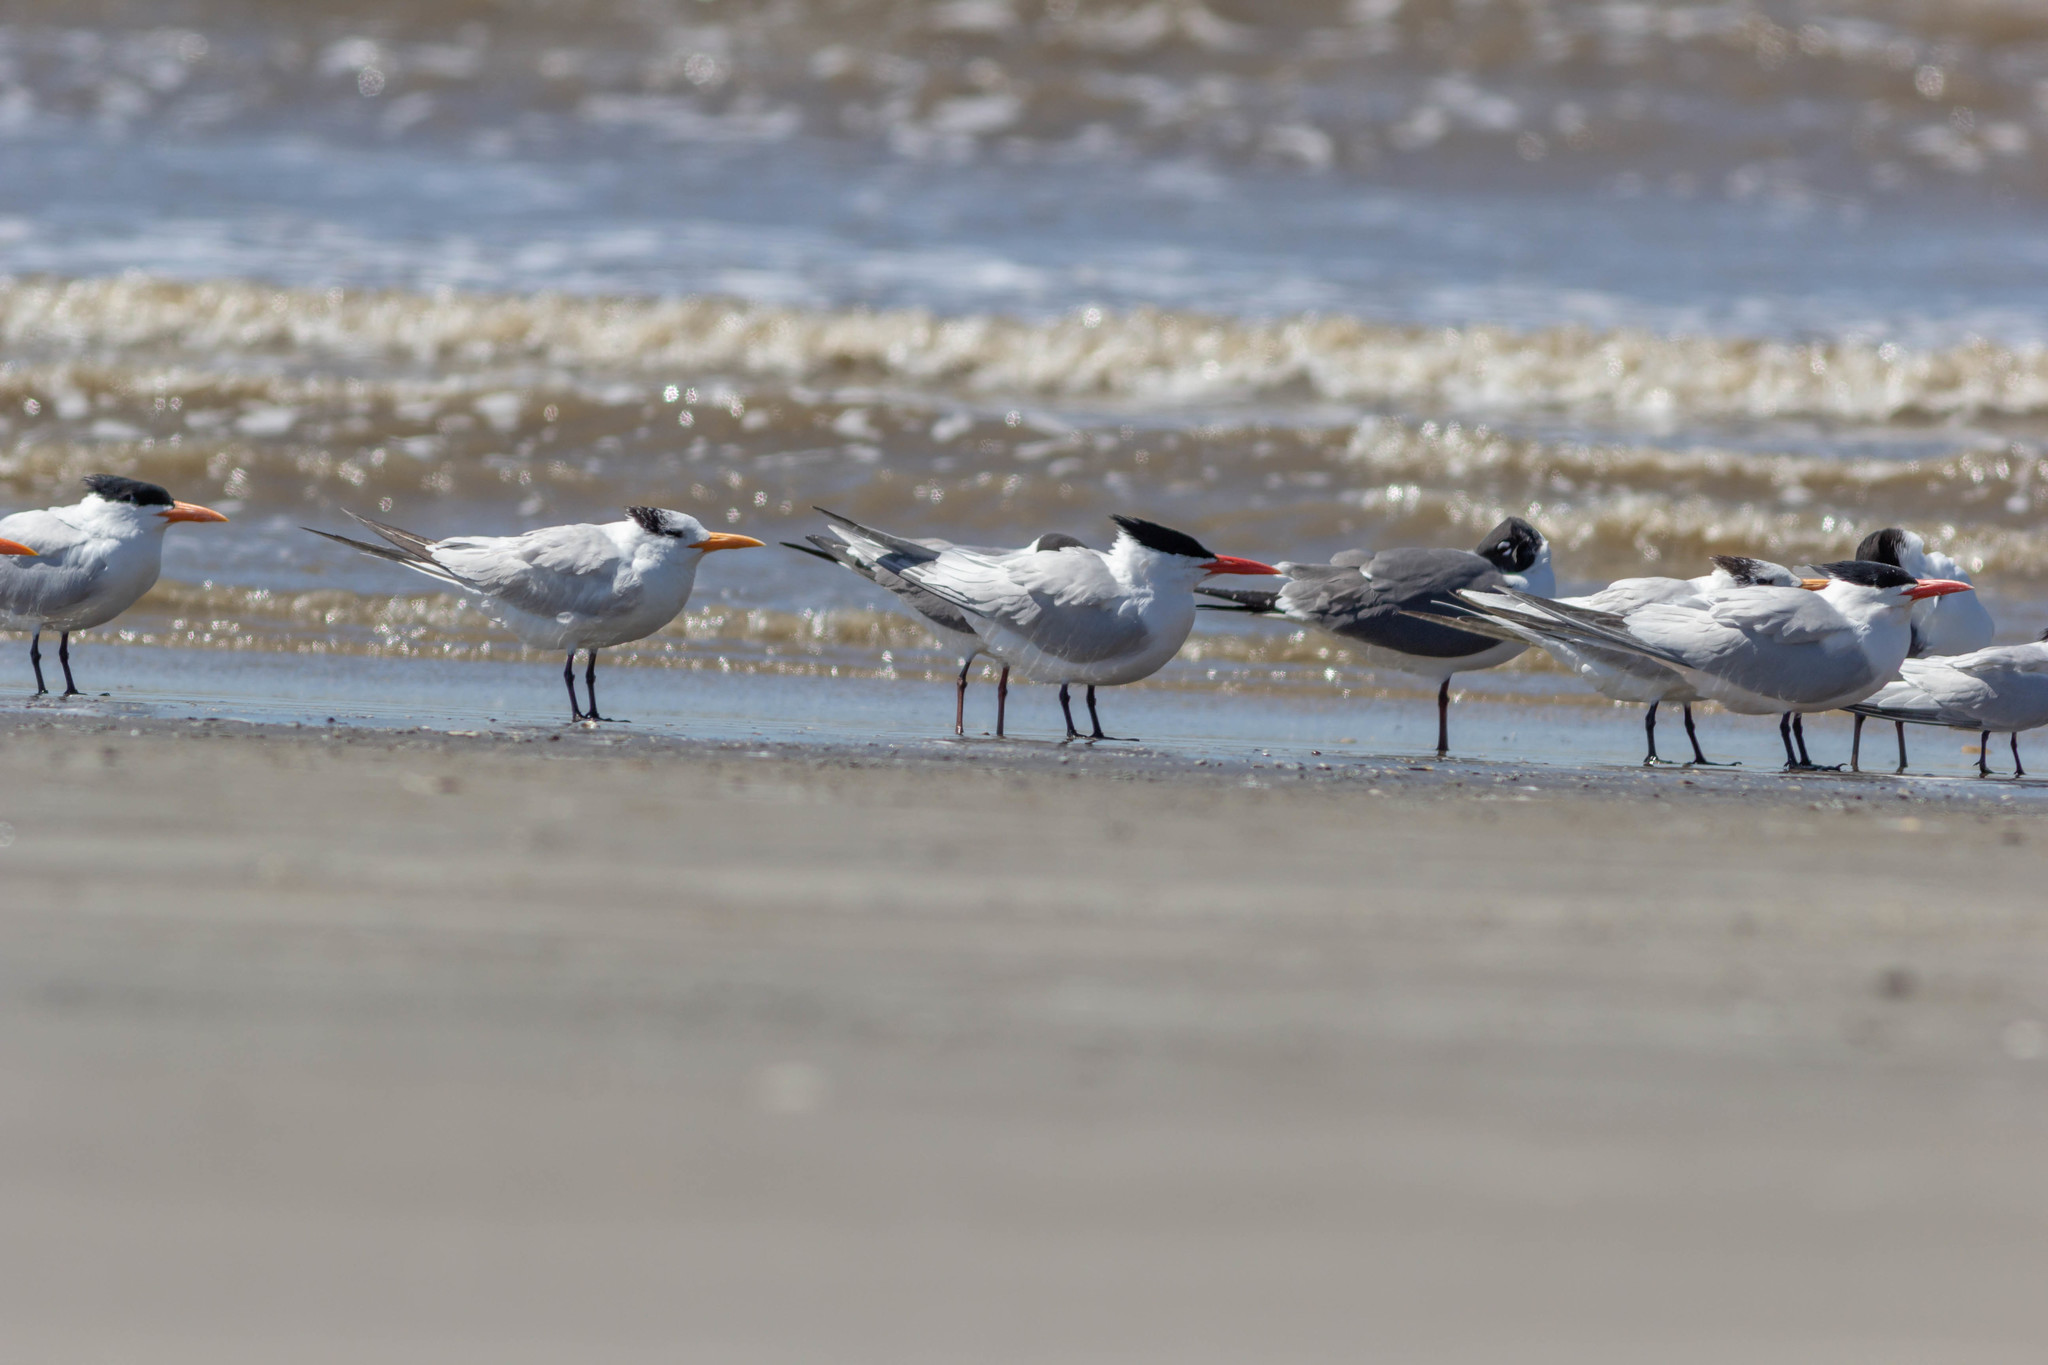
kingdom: Animalia
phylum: Chordata
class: Aves
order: Charadriiformes
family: Laridae
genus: Thalasseus
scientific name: Thalasseus maximus
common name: Royal tern
